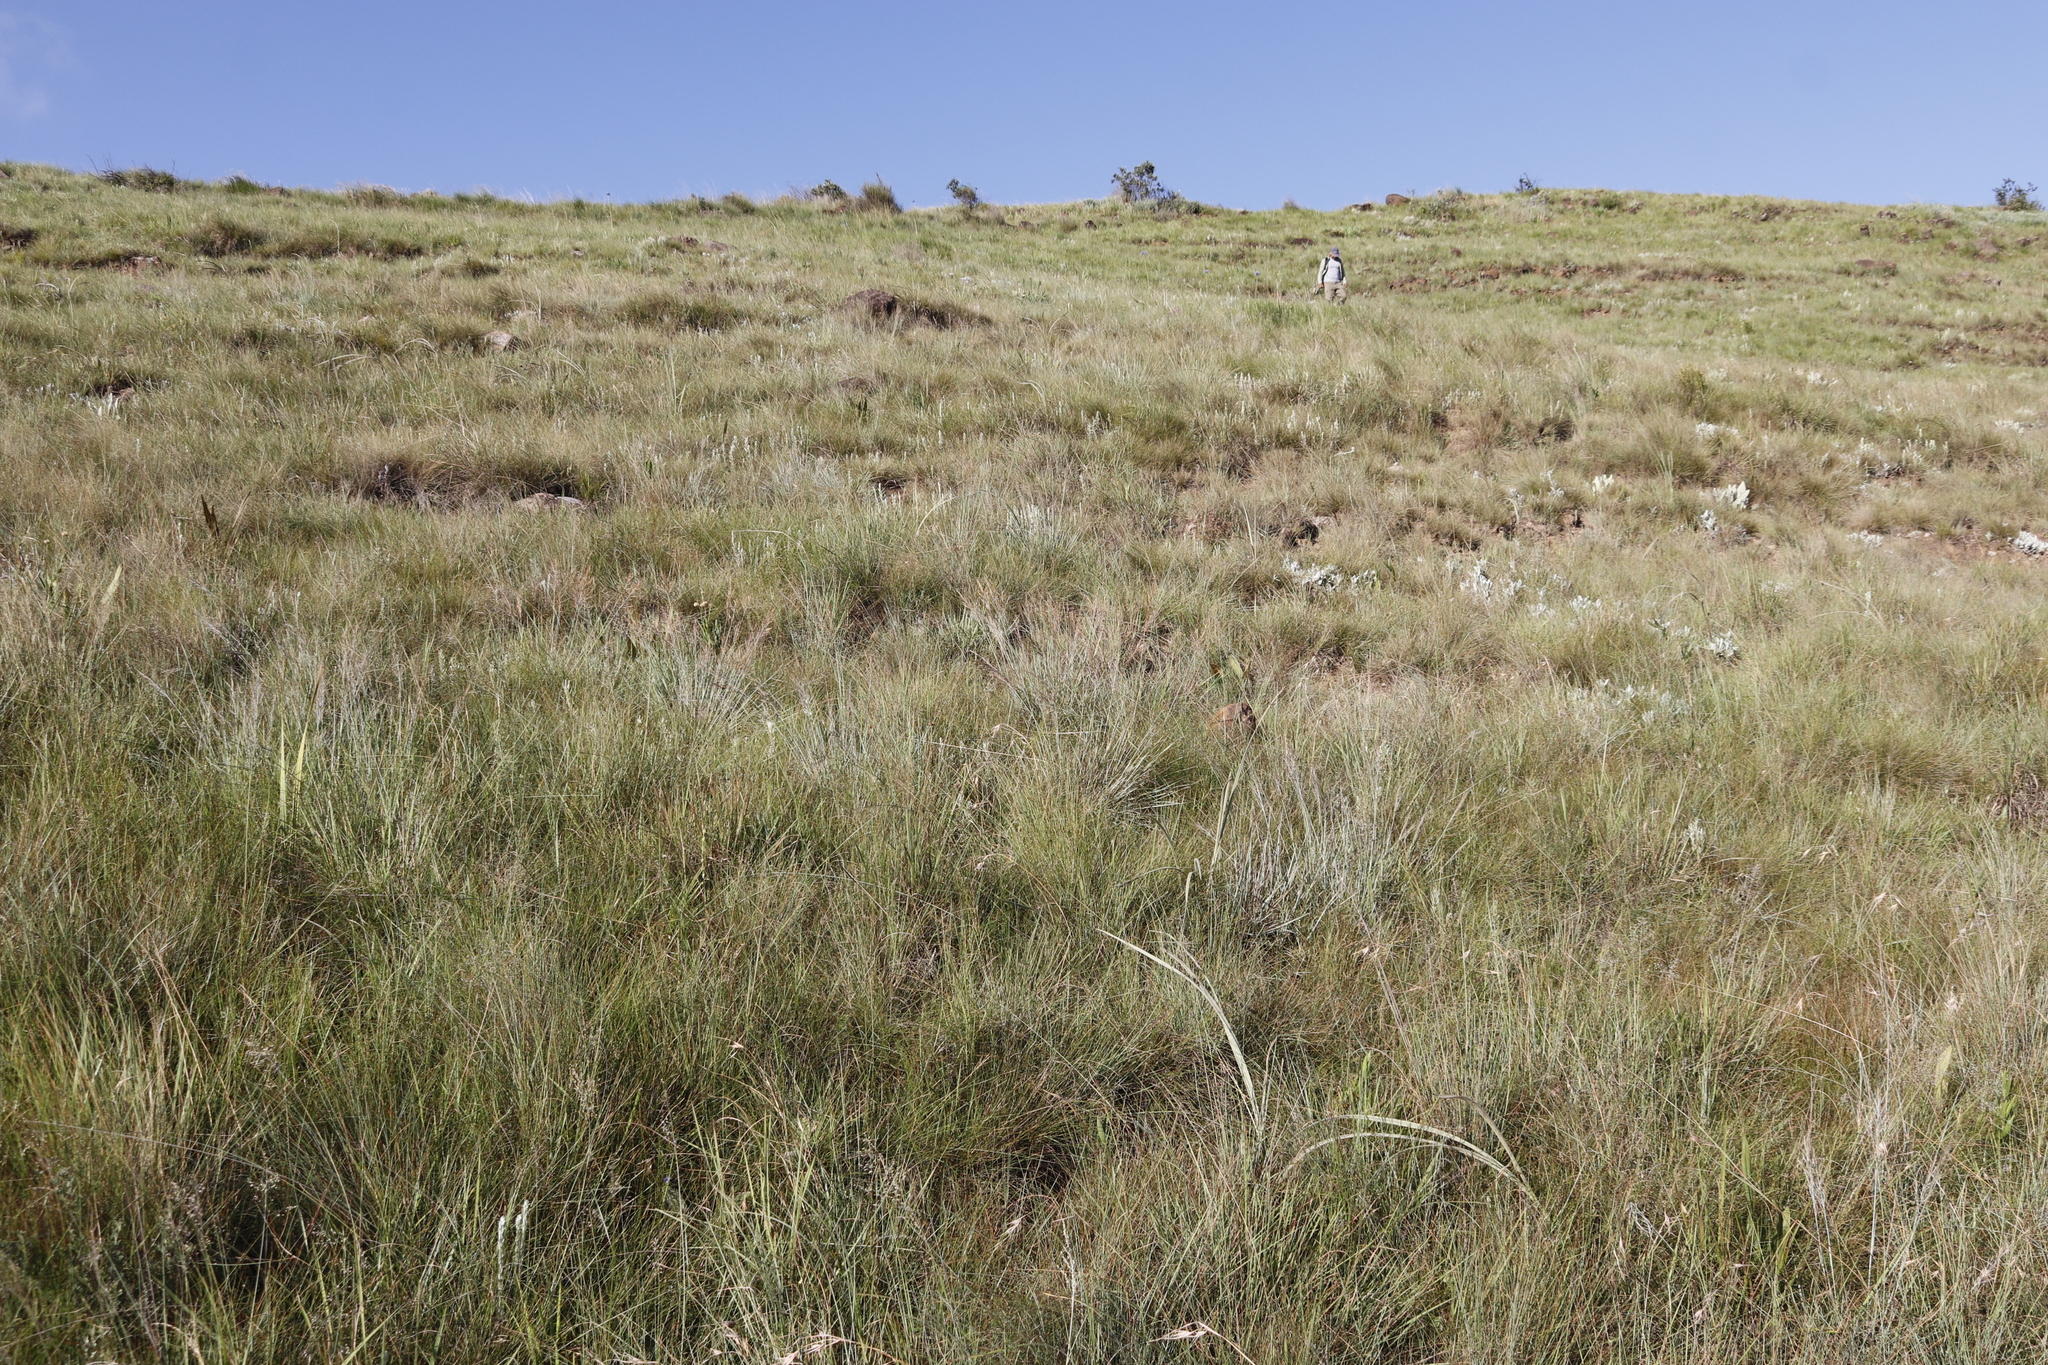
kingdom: Plantae
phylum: Tracheophyta
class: Liliopsida
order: Poales
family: Poaceae
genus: Loudetia
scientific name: Loudetia simplex
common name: Common russet grass
